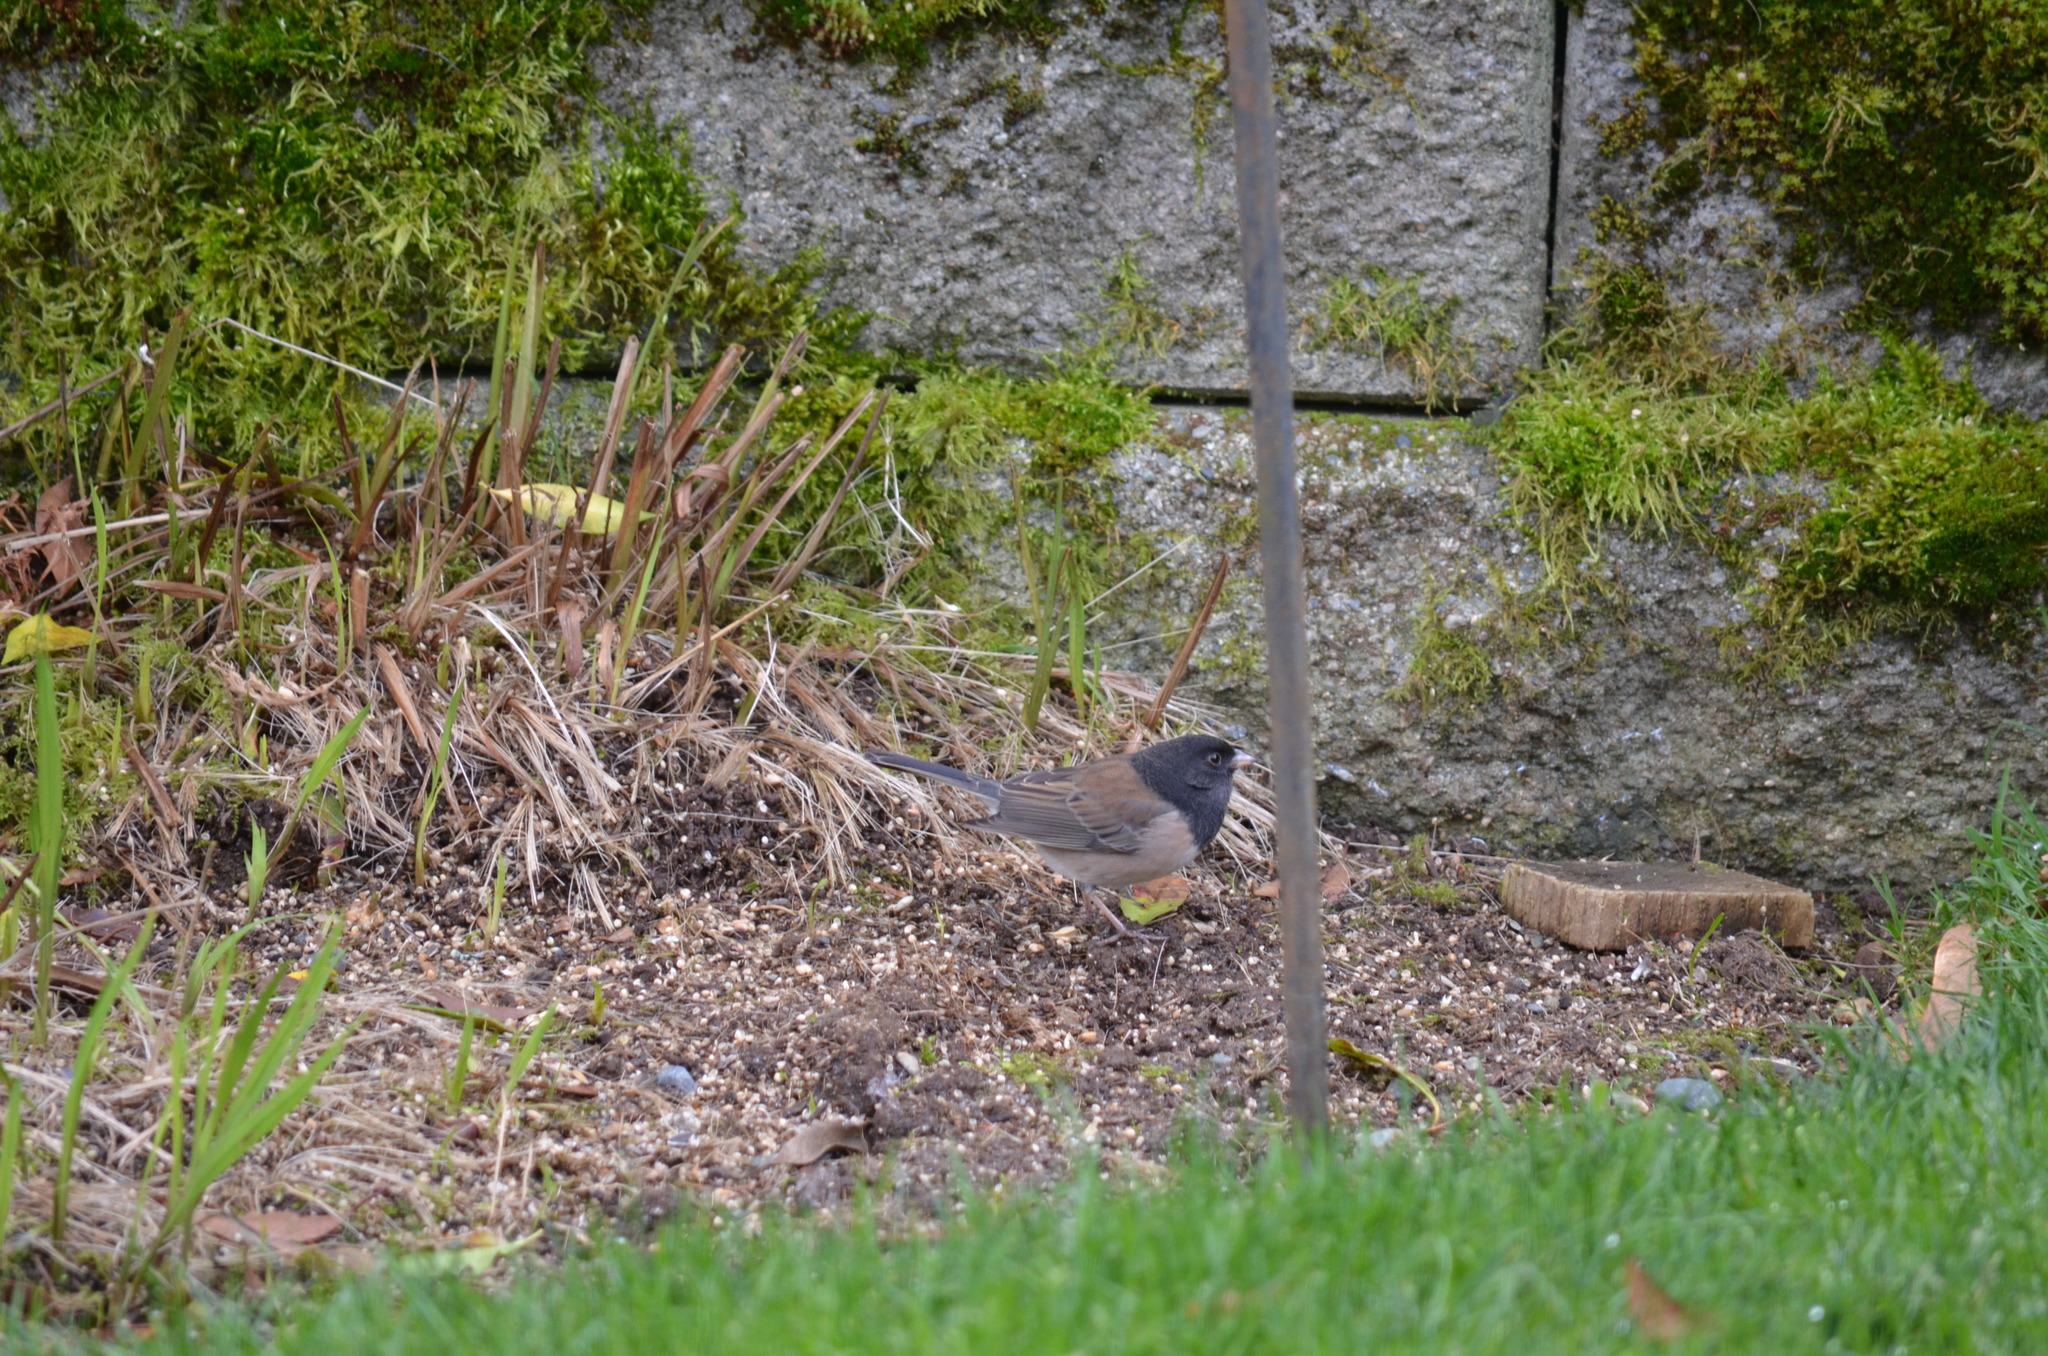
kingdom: Animalia
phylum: Chordata
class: Aves
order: Passeriformes
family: Passerellidae
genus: Junco
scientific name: Junco hyemalis
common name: Dark-eyed junco
